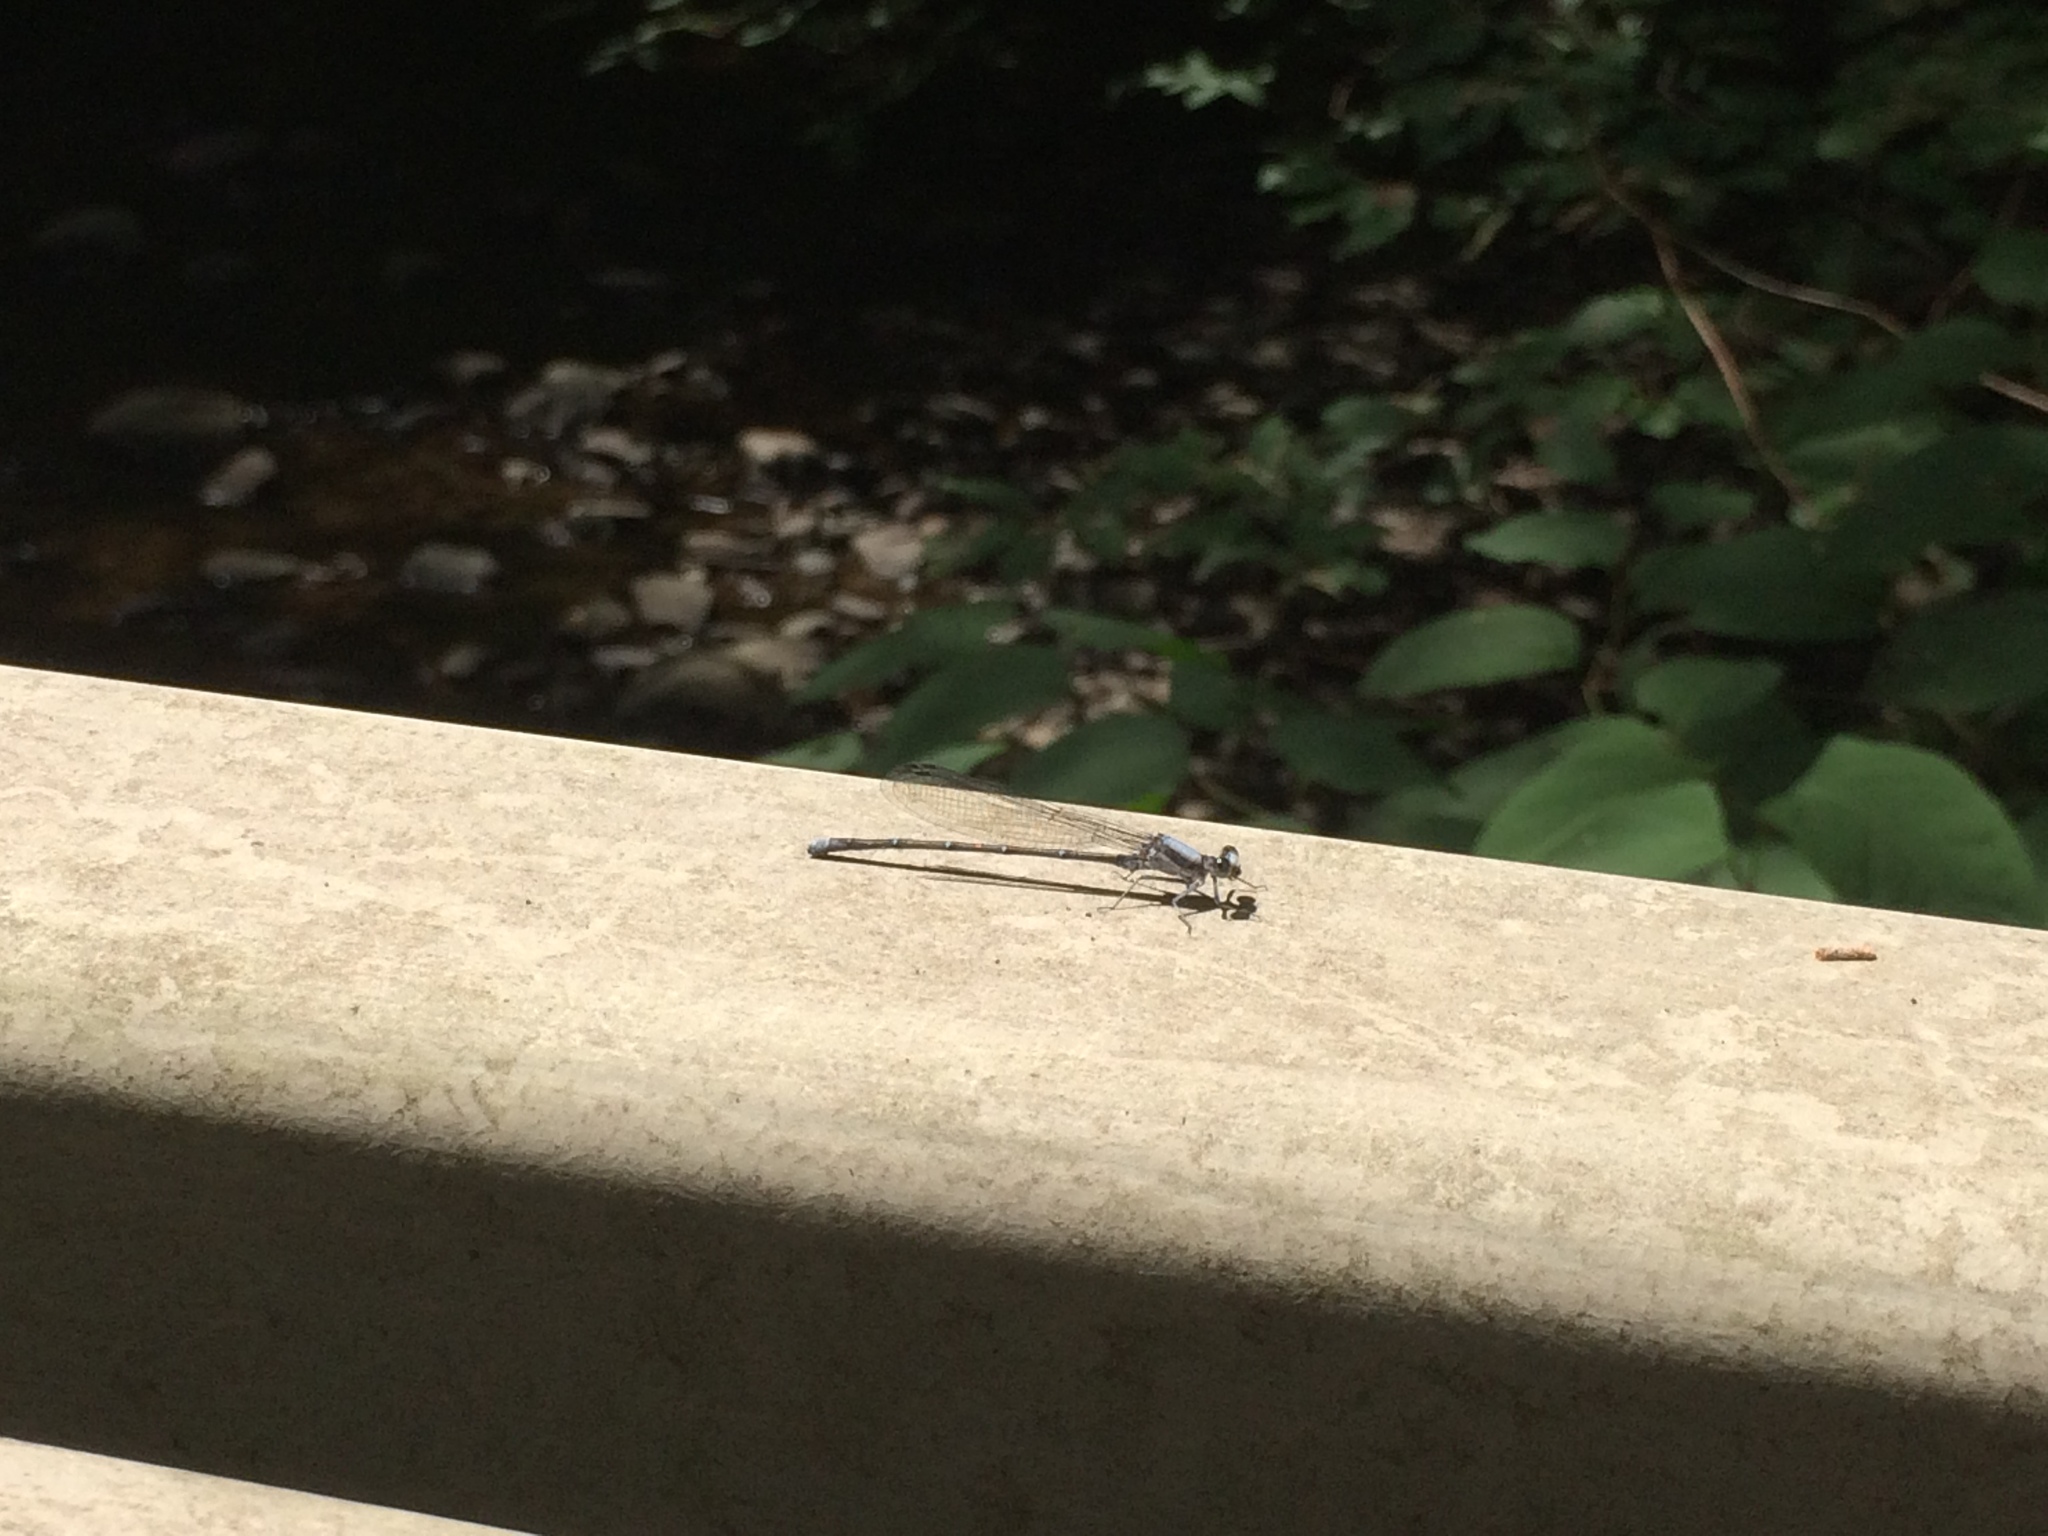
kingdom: Animalia
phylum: Arthropoda
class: Insecta
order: Odonata
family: Coenagrionidae
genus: Argia
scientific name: Argia moesta
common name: Powdered dancer
